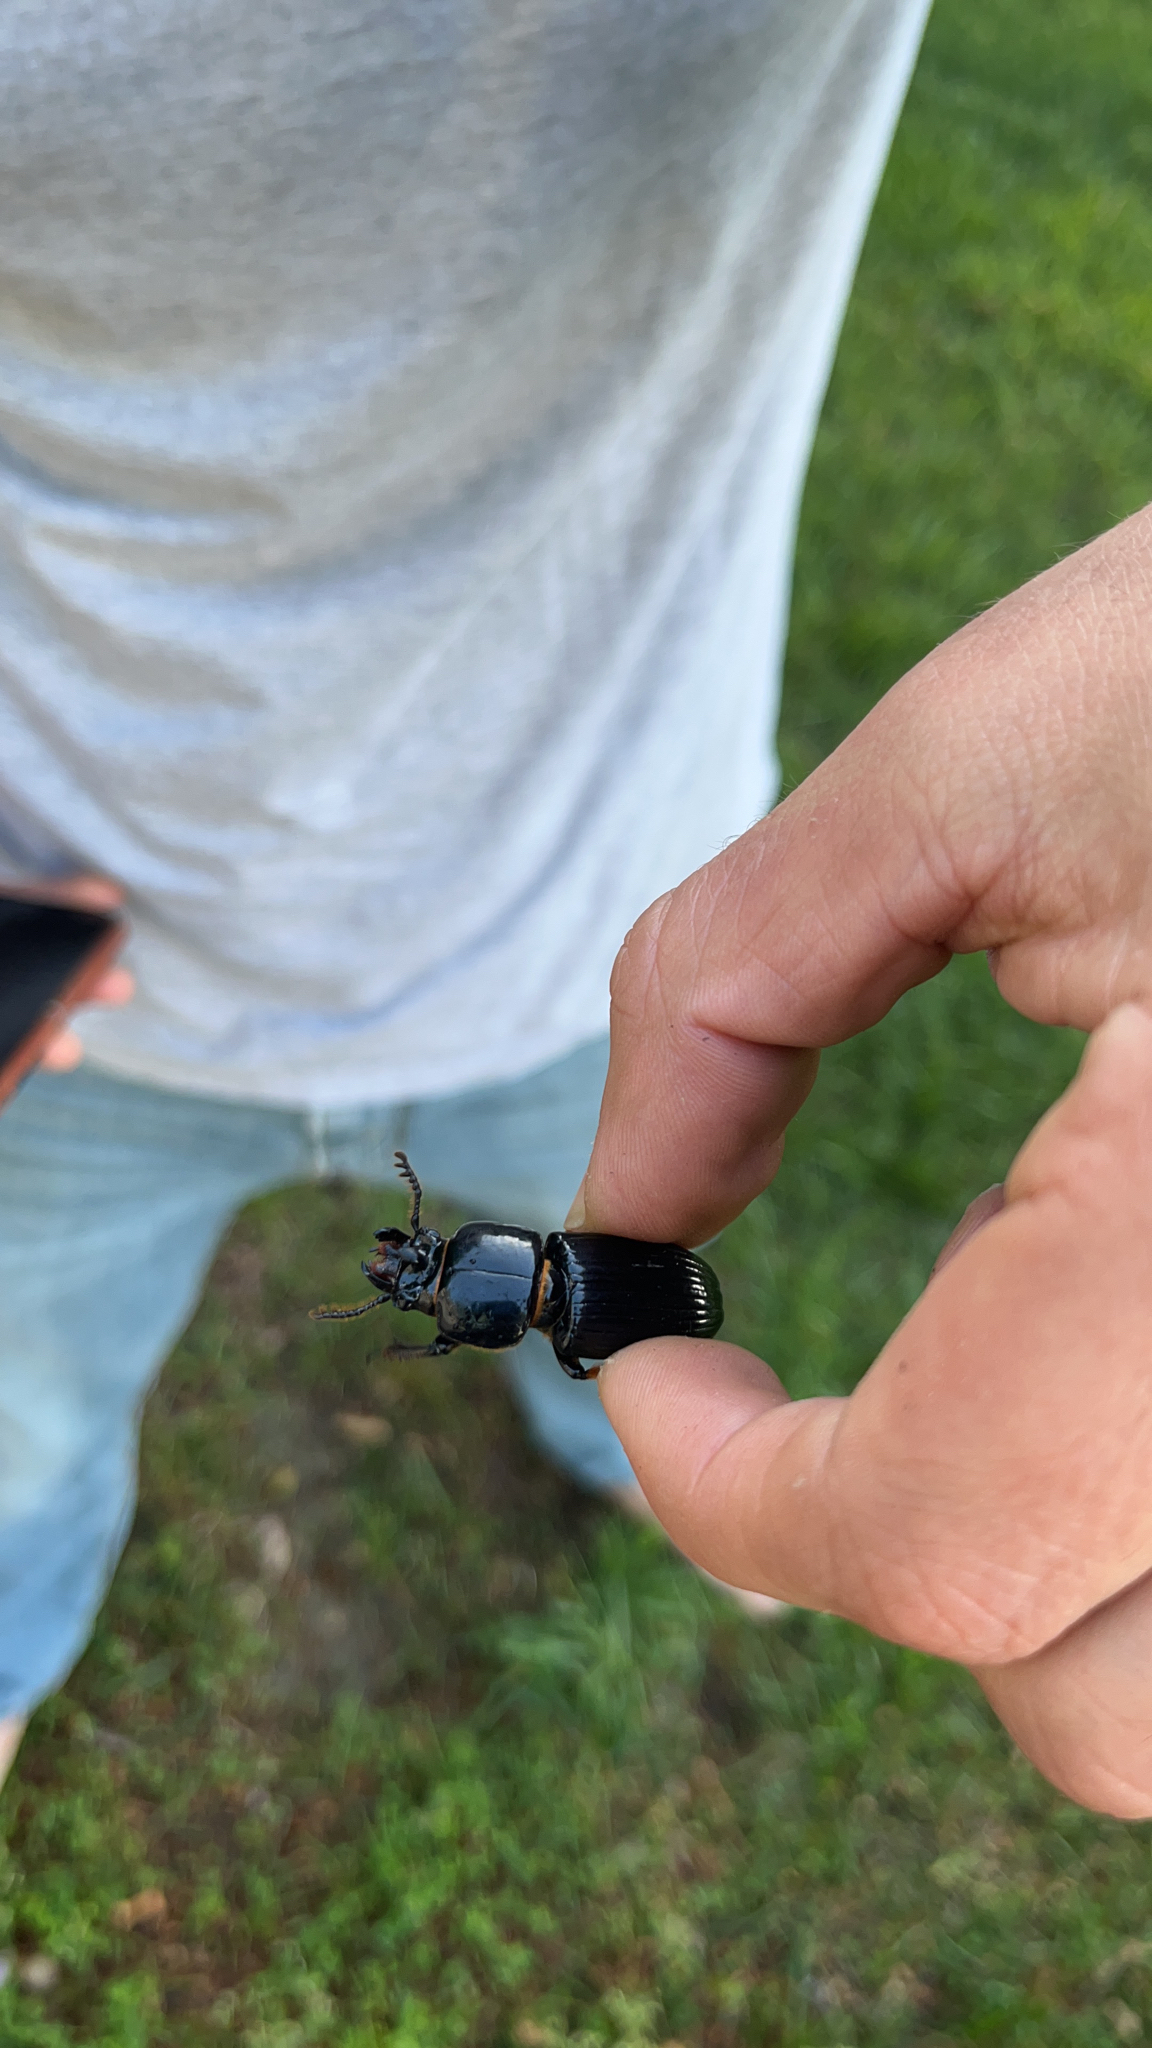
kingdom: Animalia
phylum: Arthropoda
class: Insecta
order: Coleoptera
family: Passalidae
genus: Odontotaenius
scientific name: Odontotaenius disjunctus
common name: Patent leather beetle
